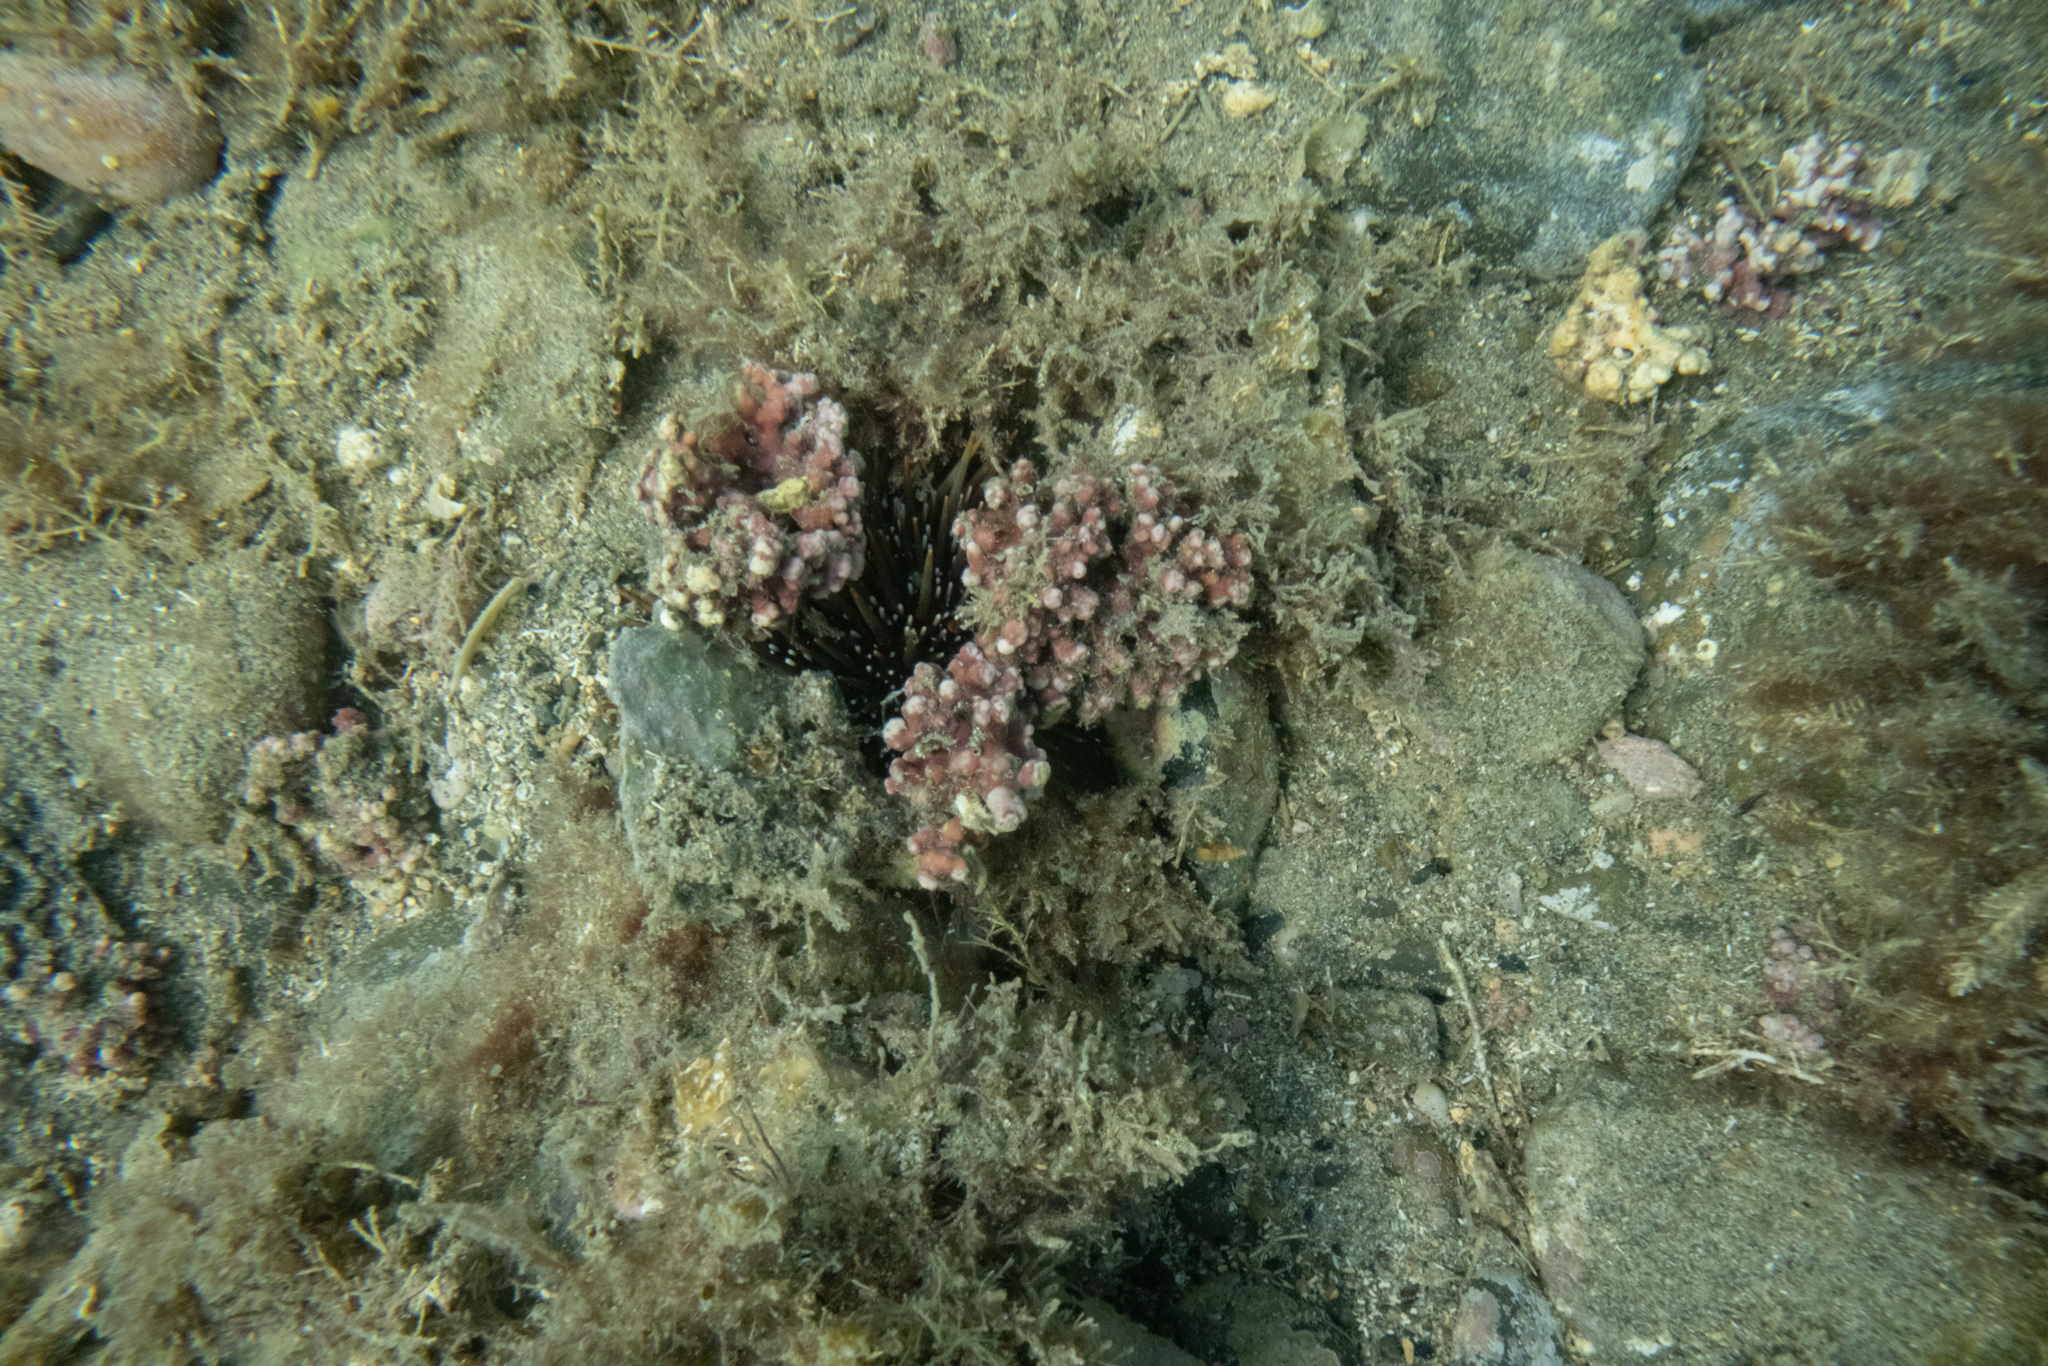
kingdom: Animalia
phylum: Echinodermata
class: Echinoidea
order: Camarodonta
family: Echinometridae
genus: Evechinus
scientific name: Evechinus chloroticus
